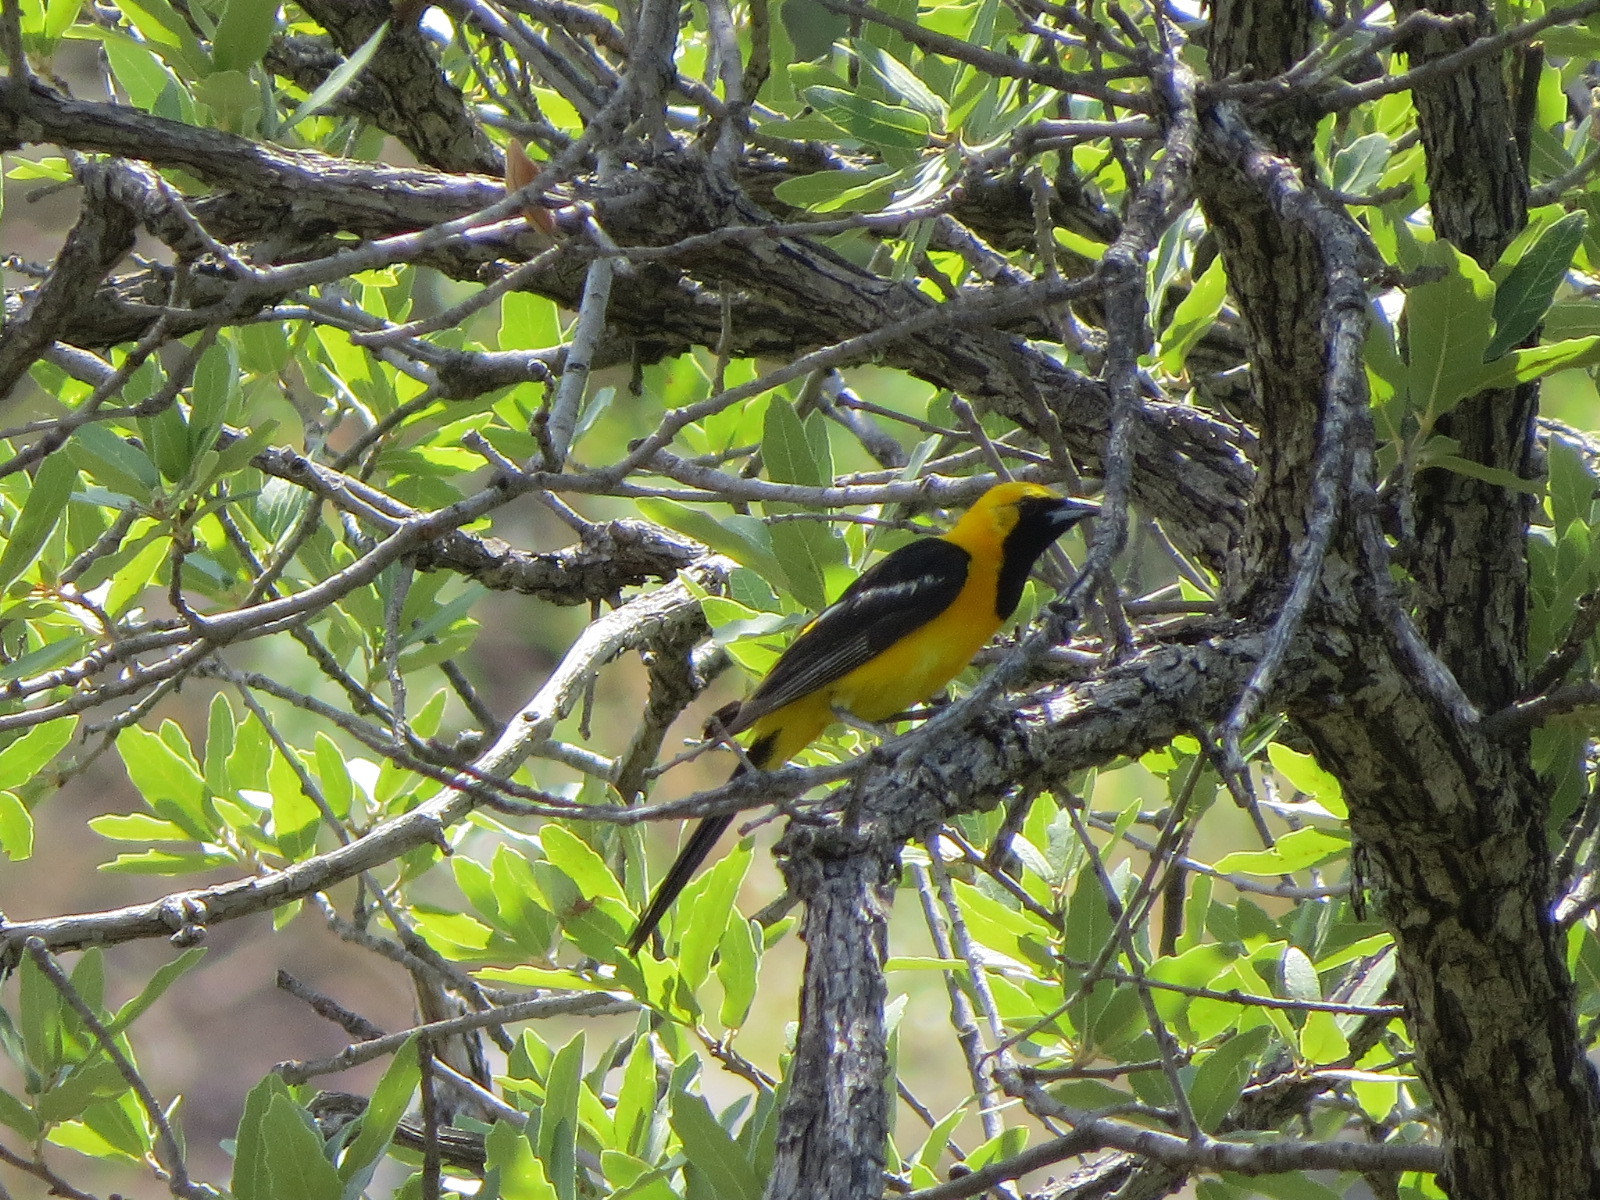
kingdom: Animalia
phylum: Chordata
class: Aves
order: Passeriformes
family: Icteridae
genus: Icterus
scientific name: Icterus cucullatus
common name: Hooded oriole
